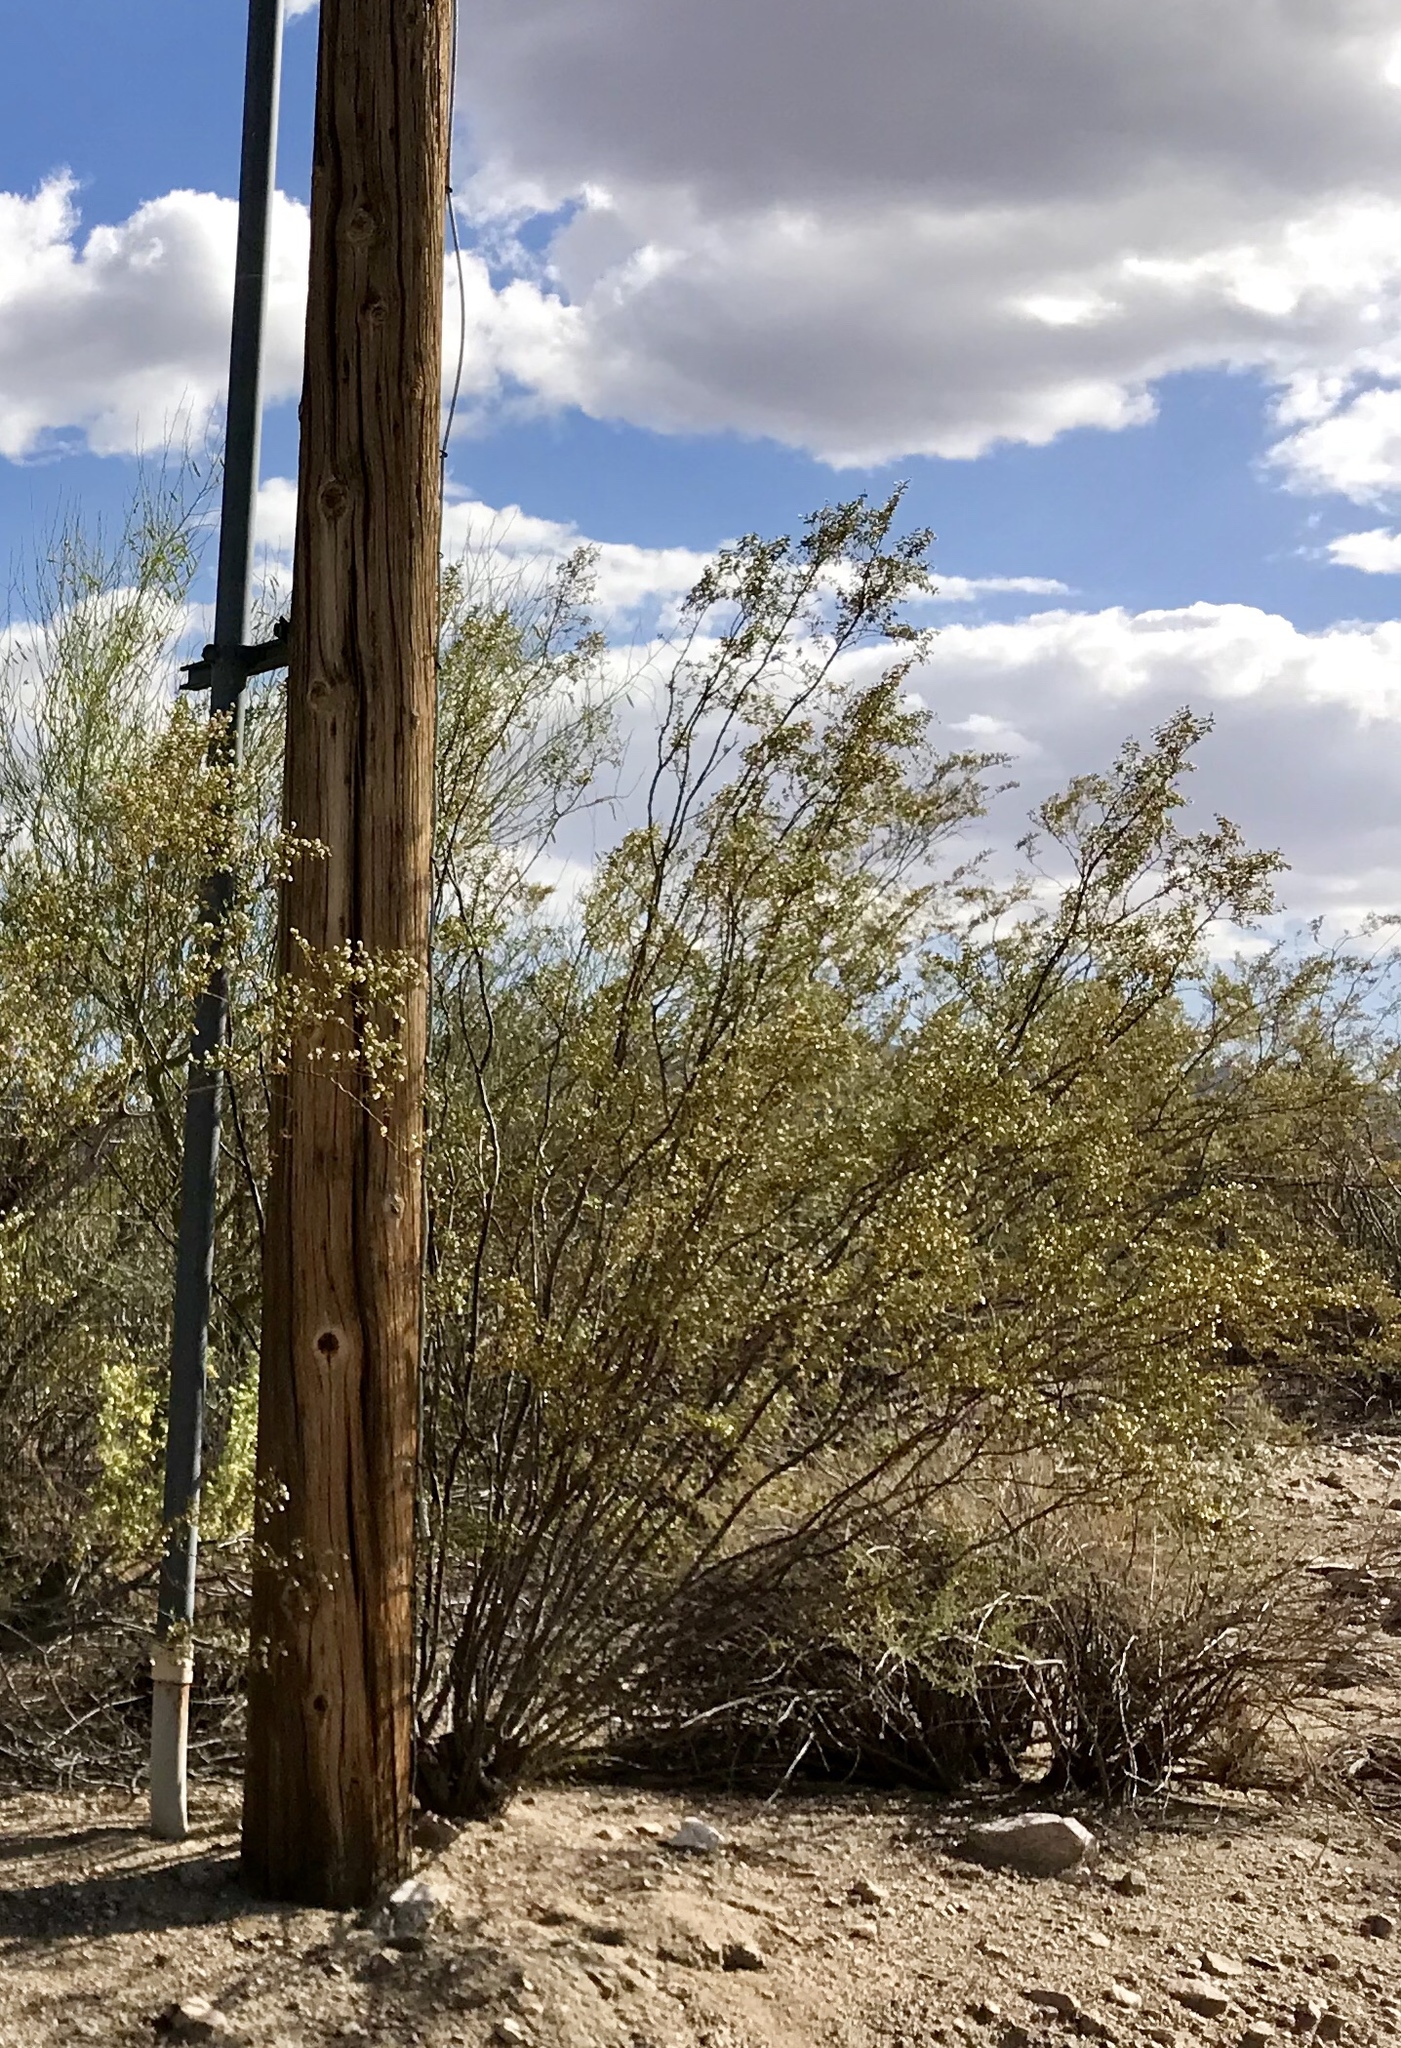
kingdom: Plantae
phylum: Tracheophyta
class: Magnoliopsida
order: Zygophyllales
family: Zygophyllaceae
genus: Larrea
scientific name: Larrea tridentata
